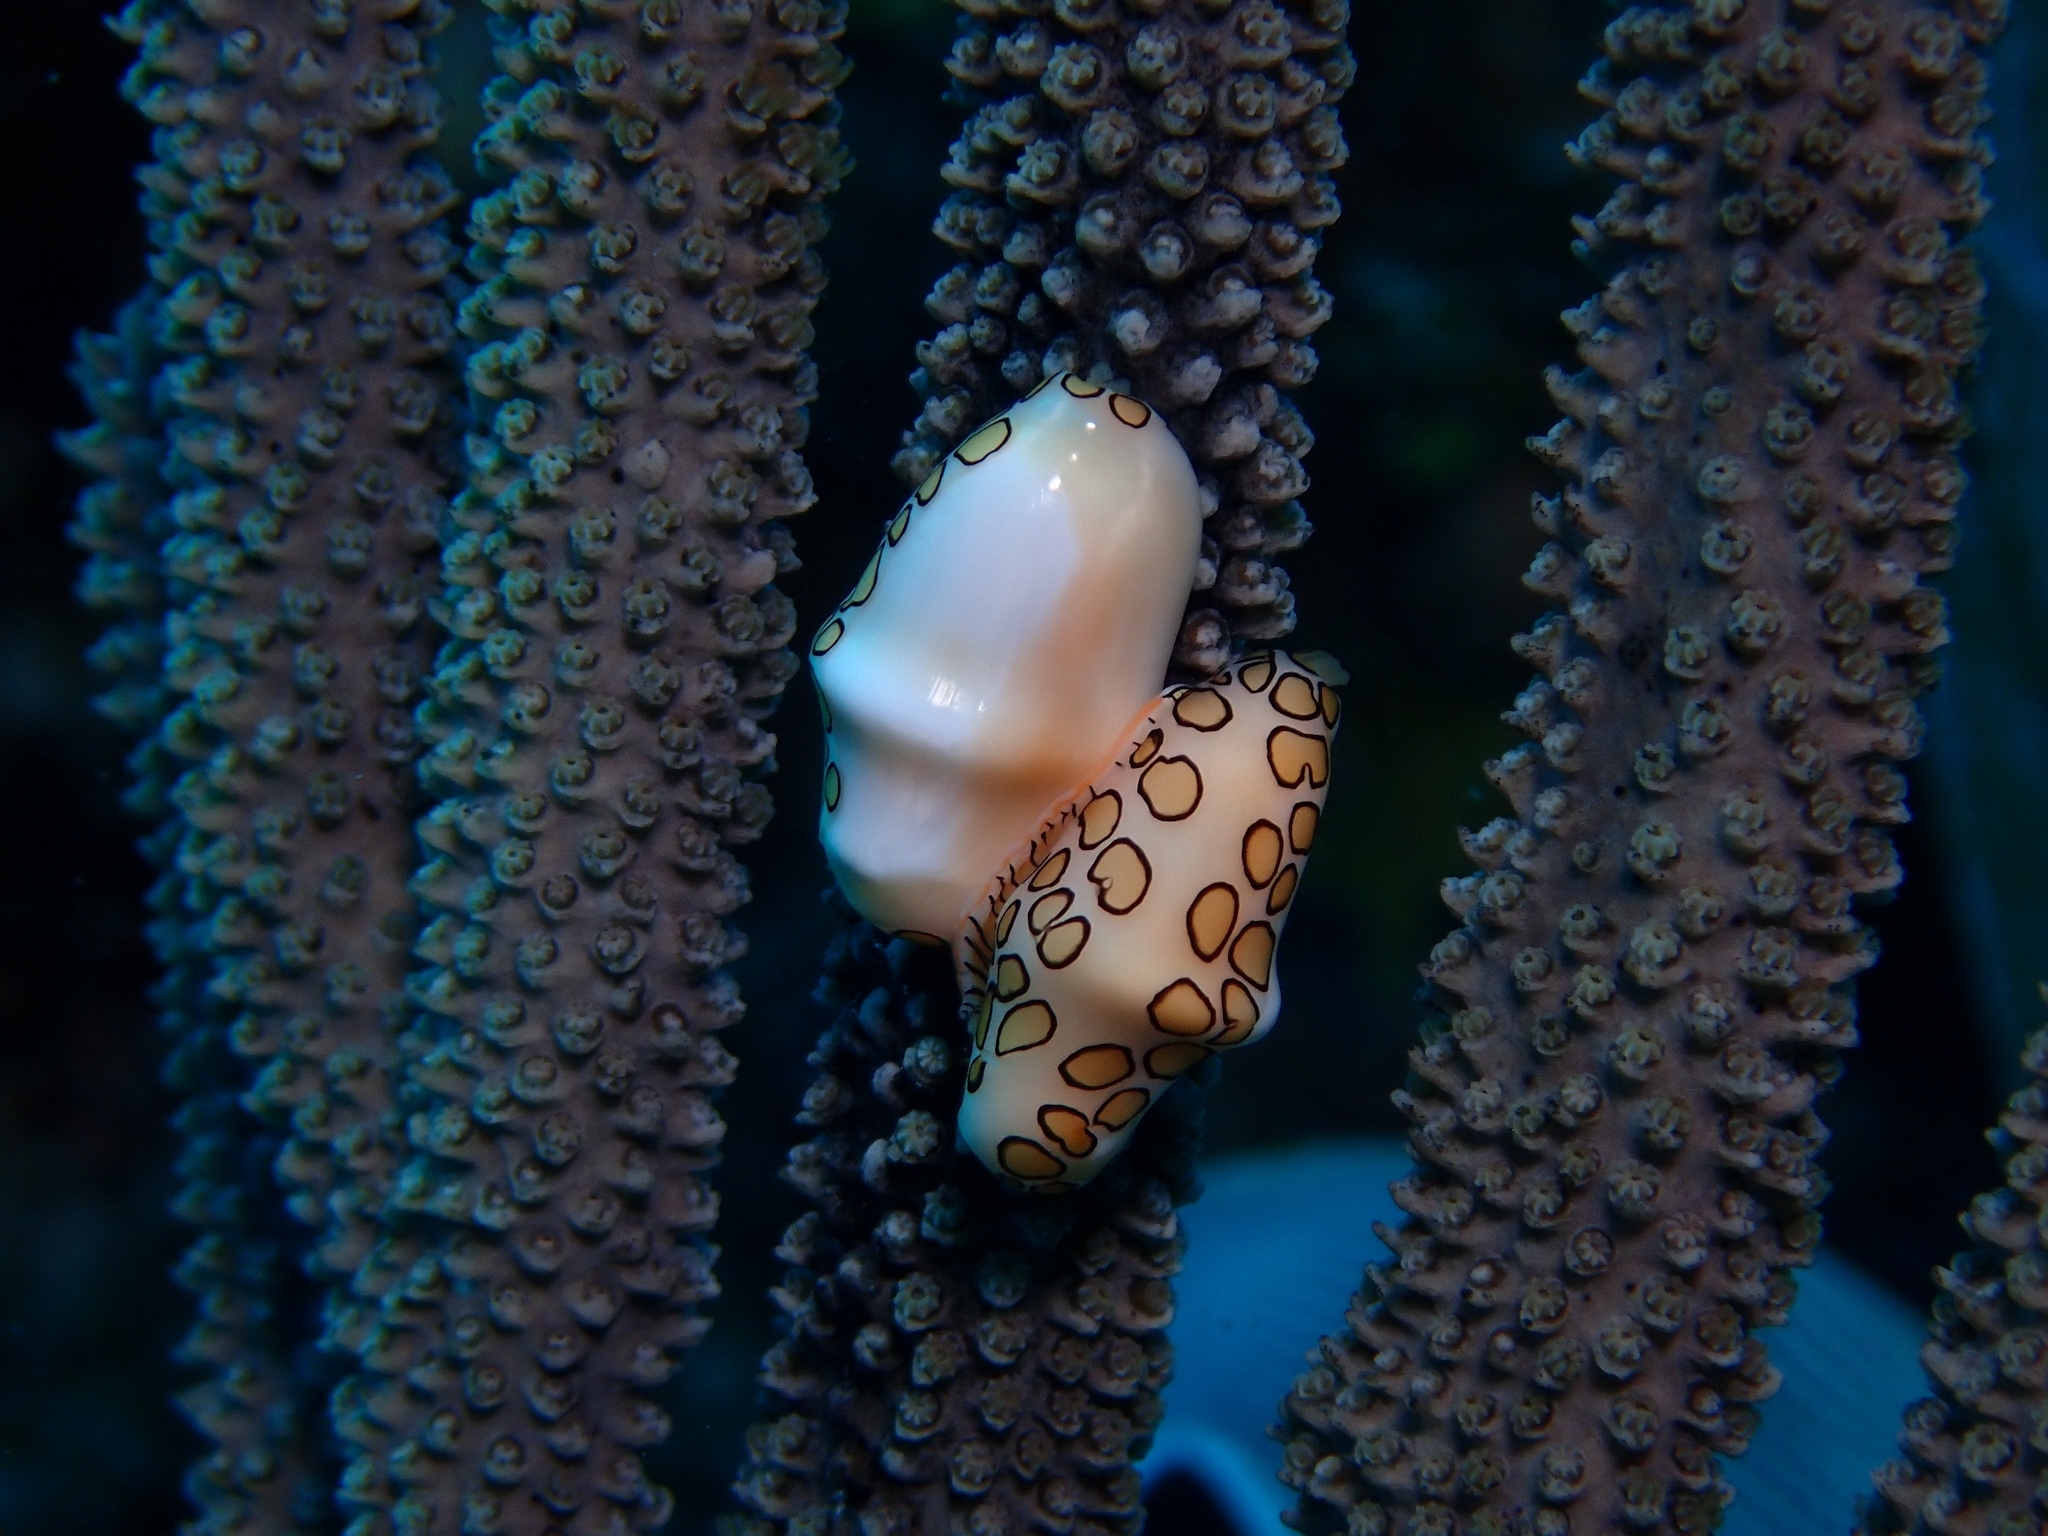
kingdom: Animalia
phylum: Mollusca
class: Gastropoda
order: Littorinimorpha
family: Ovulidae
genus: Cyphoma
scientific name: Cyphoma gibbosum
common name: Flamingo tongue
